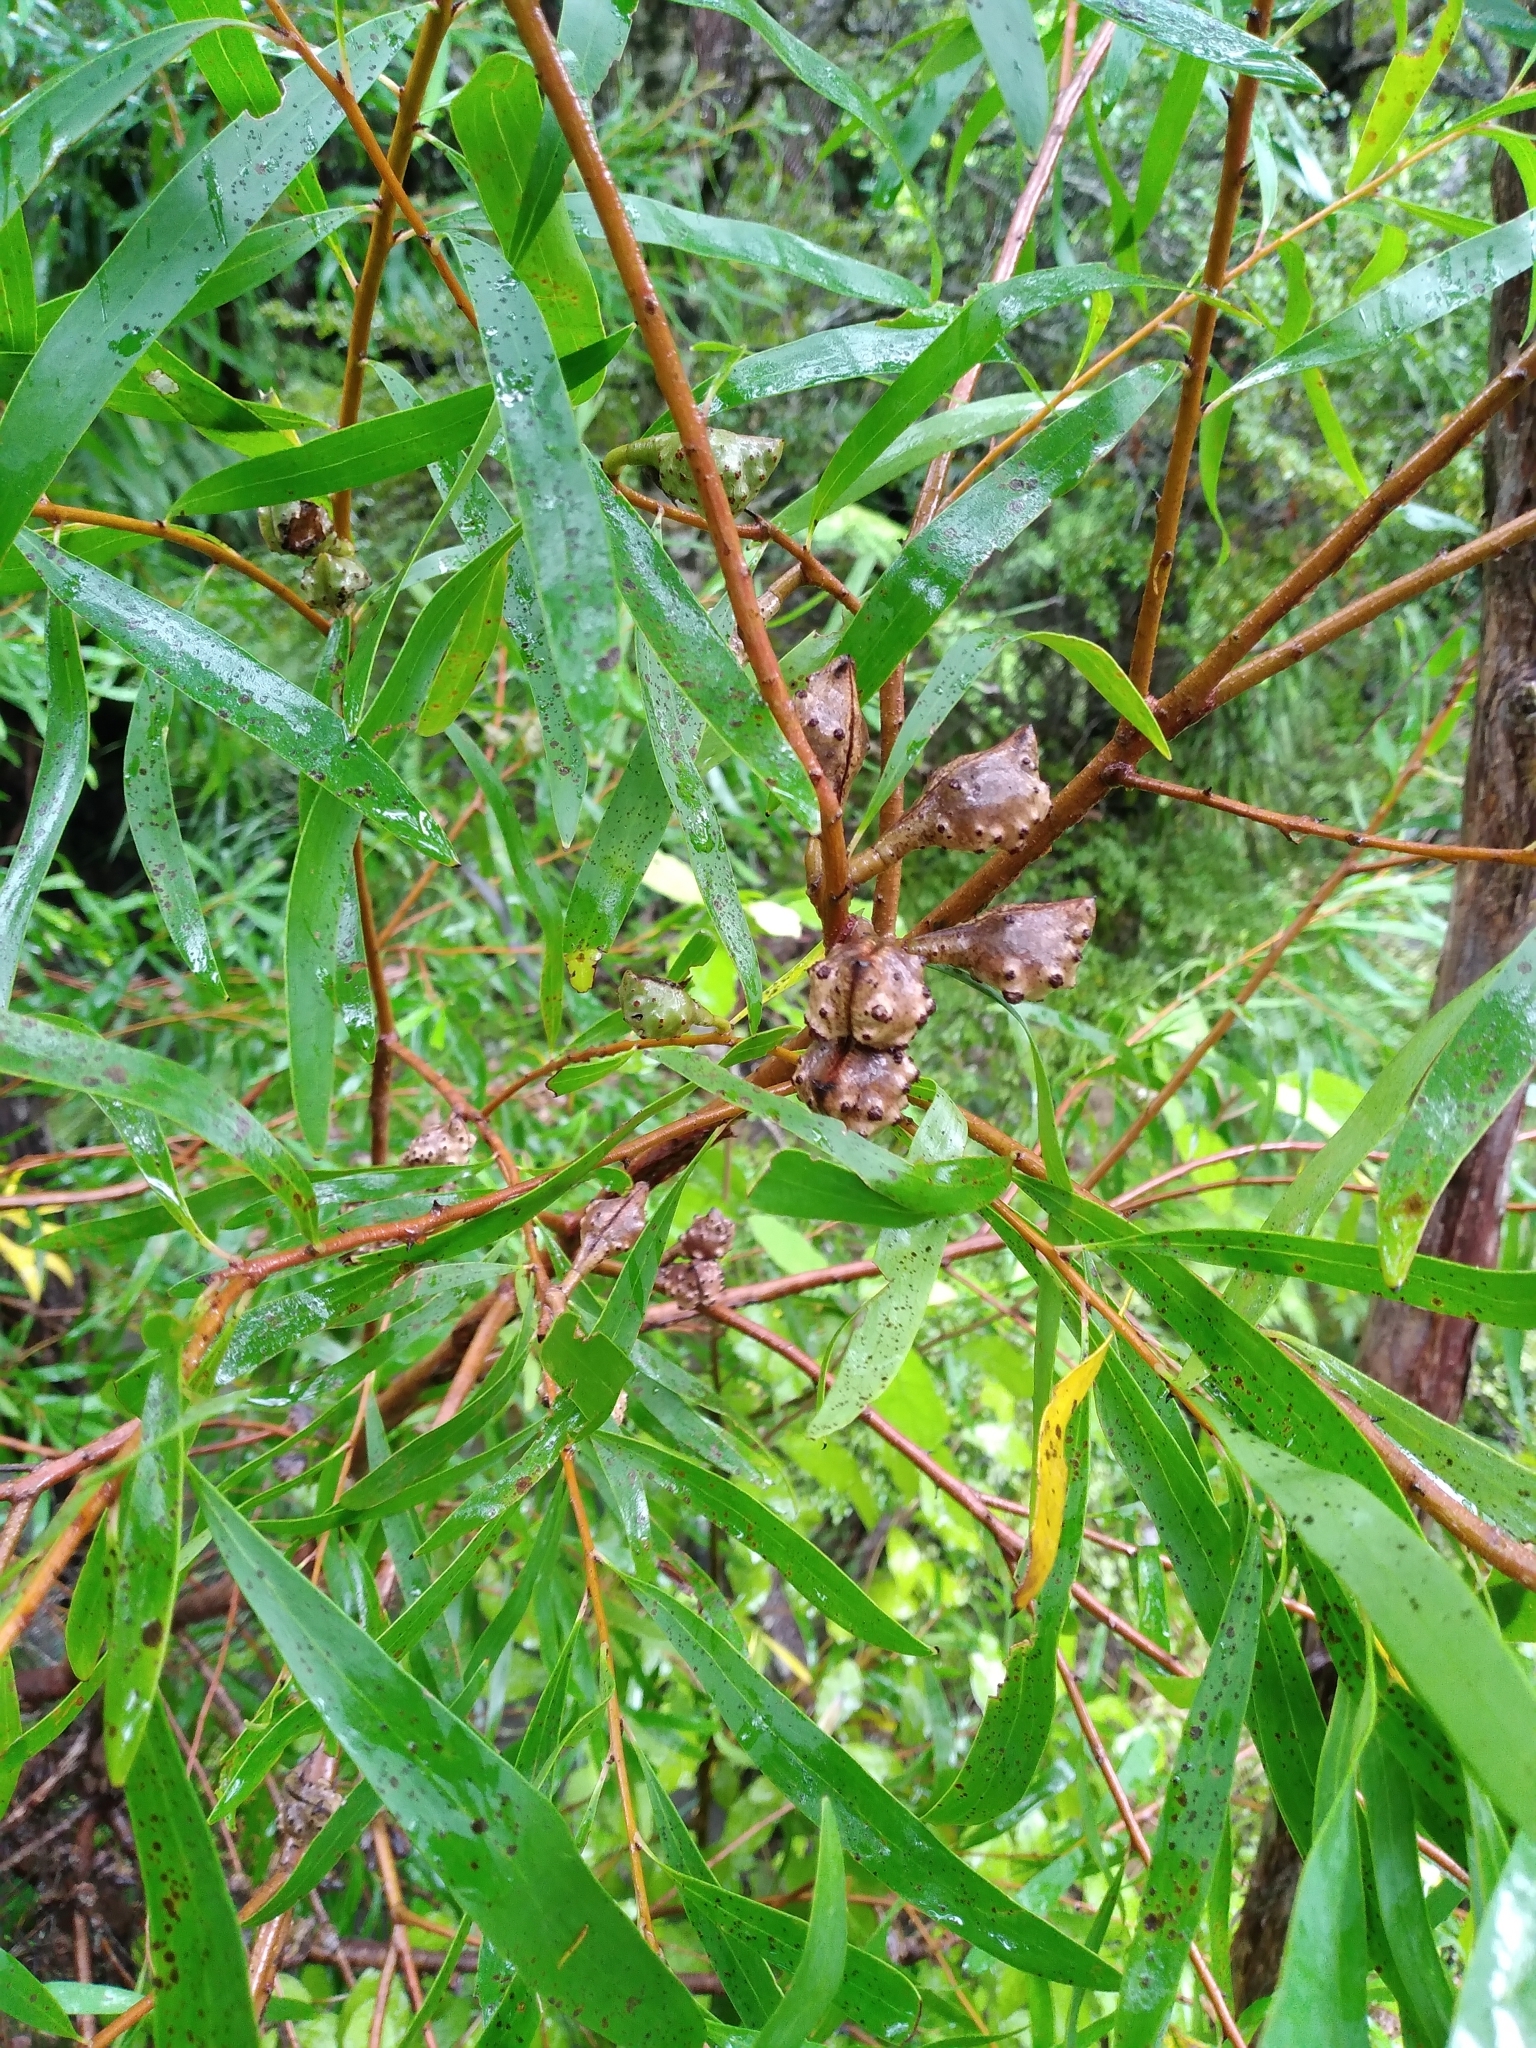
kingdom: Plantae
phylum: Tracheophyta
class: Magnoliopsida
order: Proteales
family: Proteaceae
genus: Hakea
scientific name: Hakea salicifolia
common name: Willow hakea
